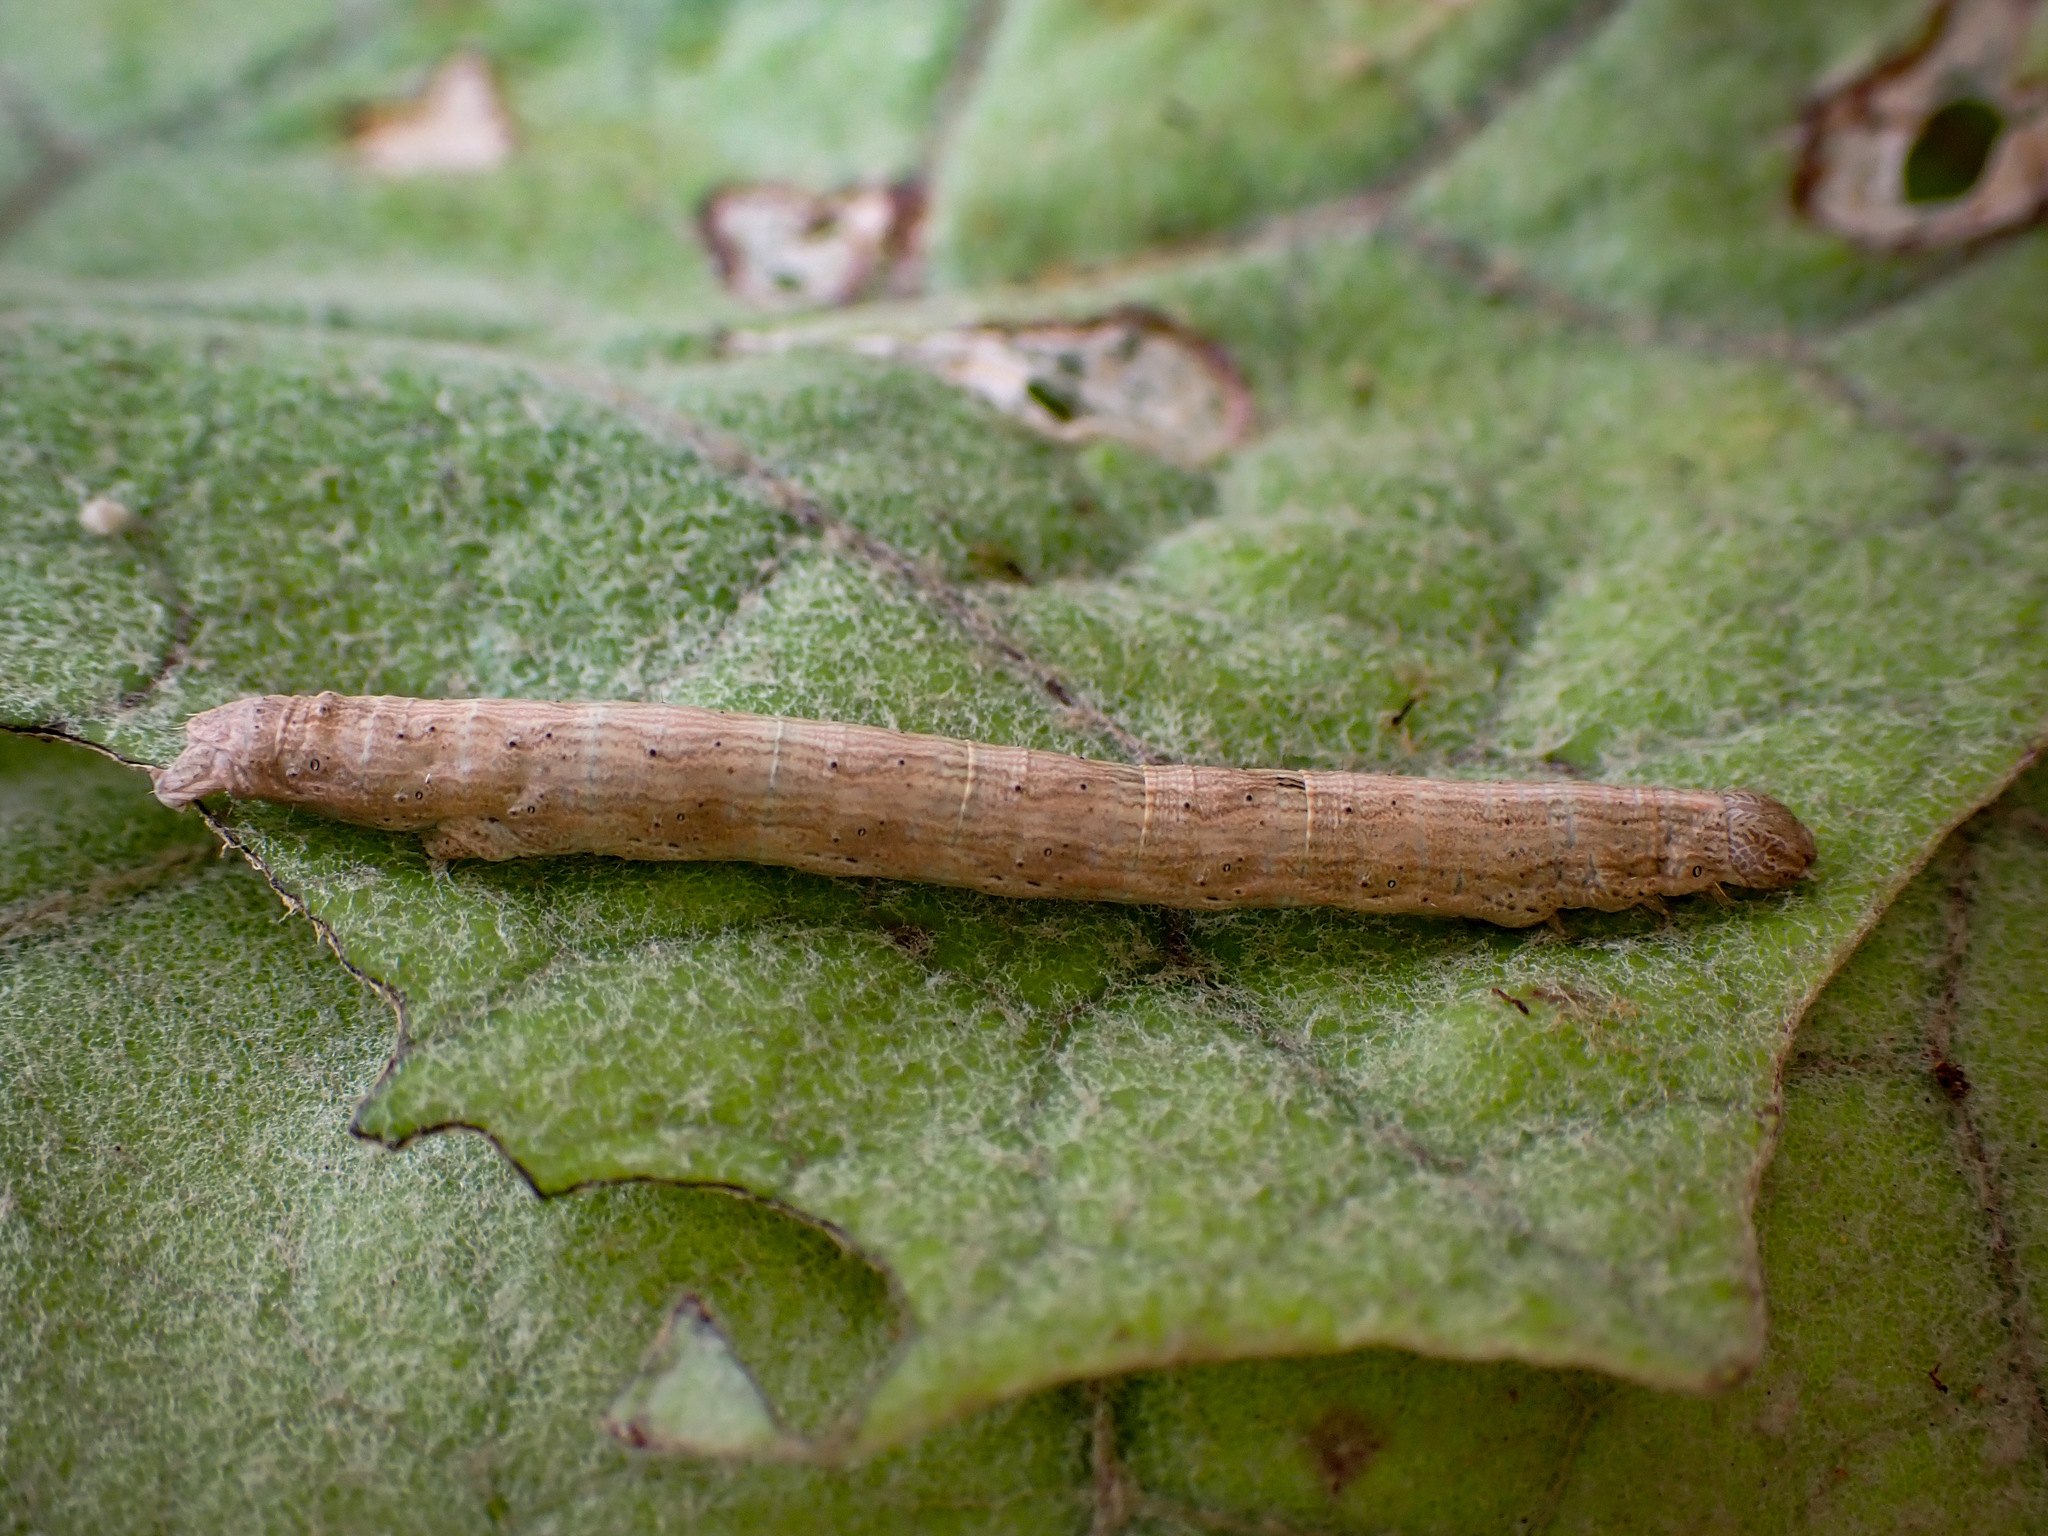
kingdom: Animalia
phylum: Arthropoda
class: Insecta
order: Lepidoptera
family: Geometridae
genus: Pseudocoremia
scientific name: Pseudocoremia rudisata
